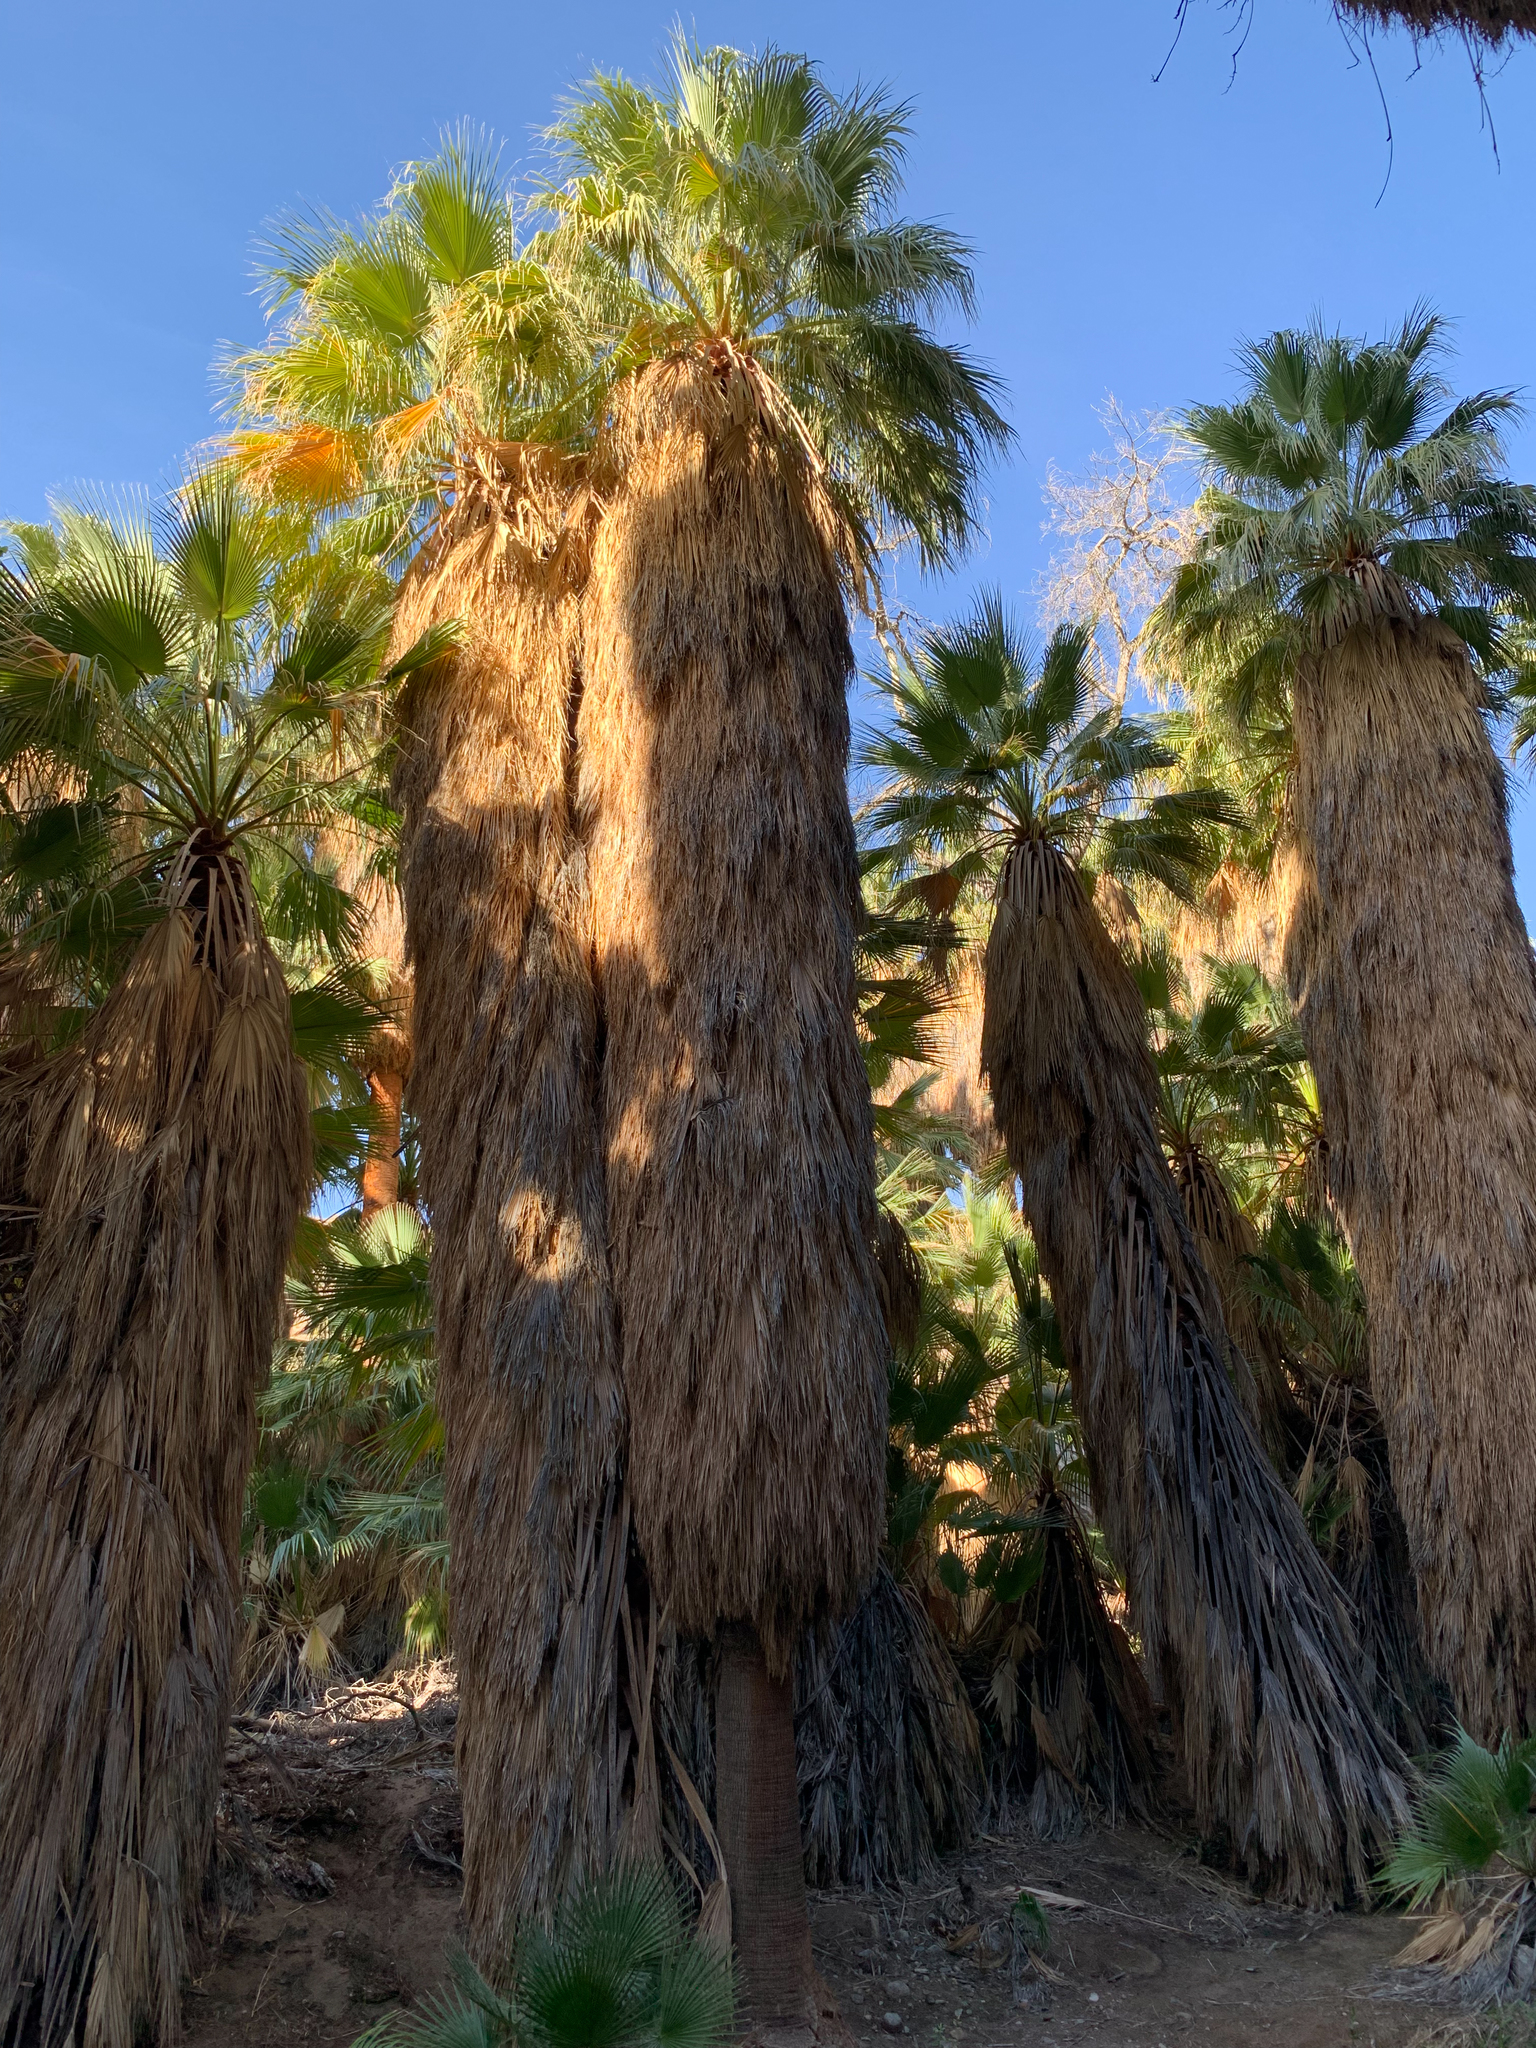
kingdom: Plantae
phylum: Tracheophyta
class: Liliopsida
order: Arecales
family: Arecaceae
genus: Washingtonia
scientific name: Washingtonia filifera
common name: California fan palm
